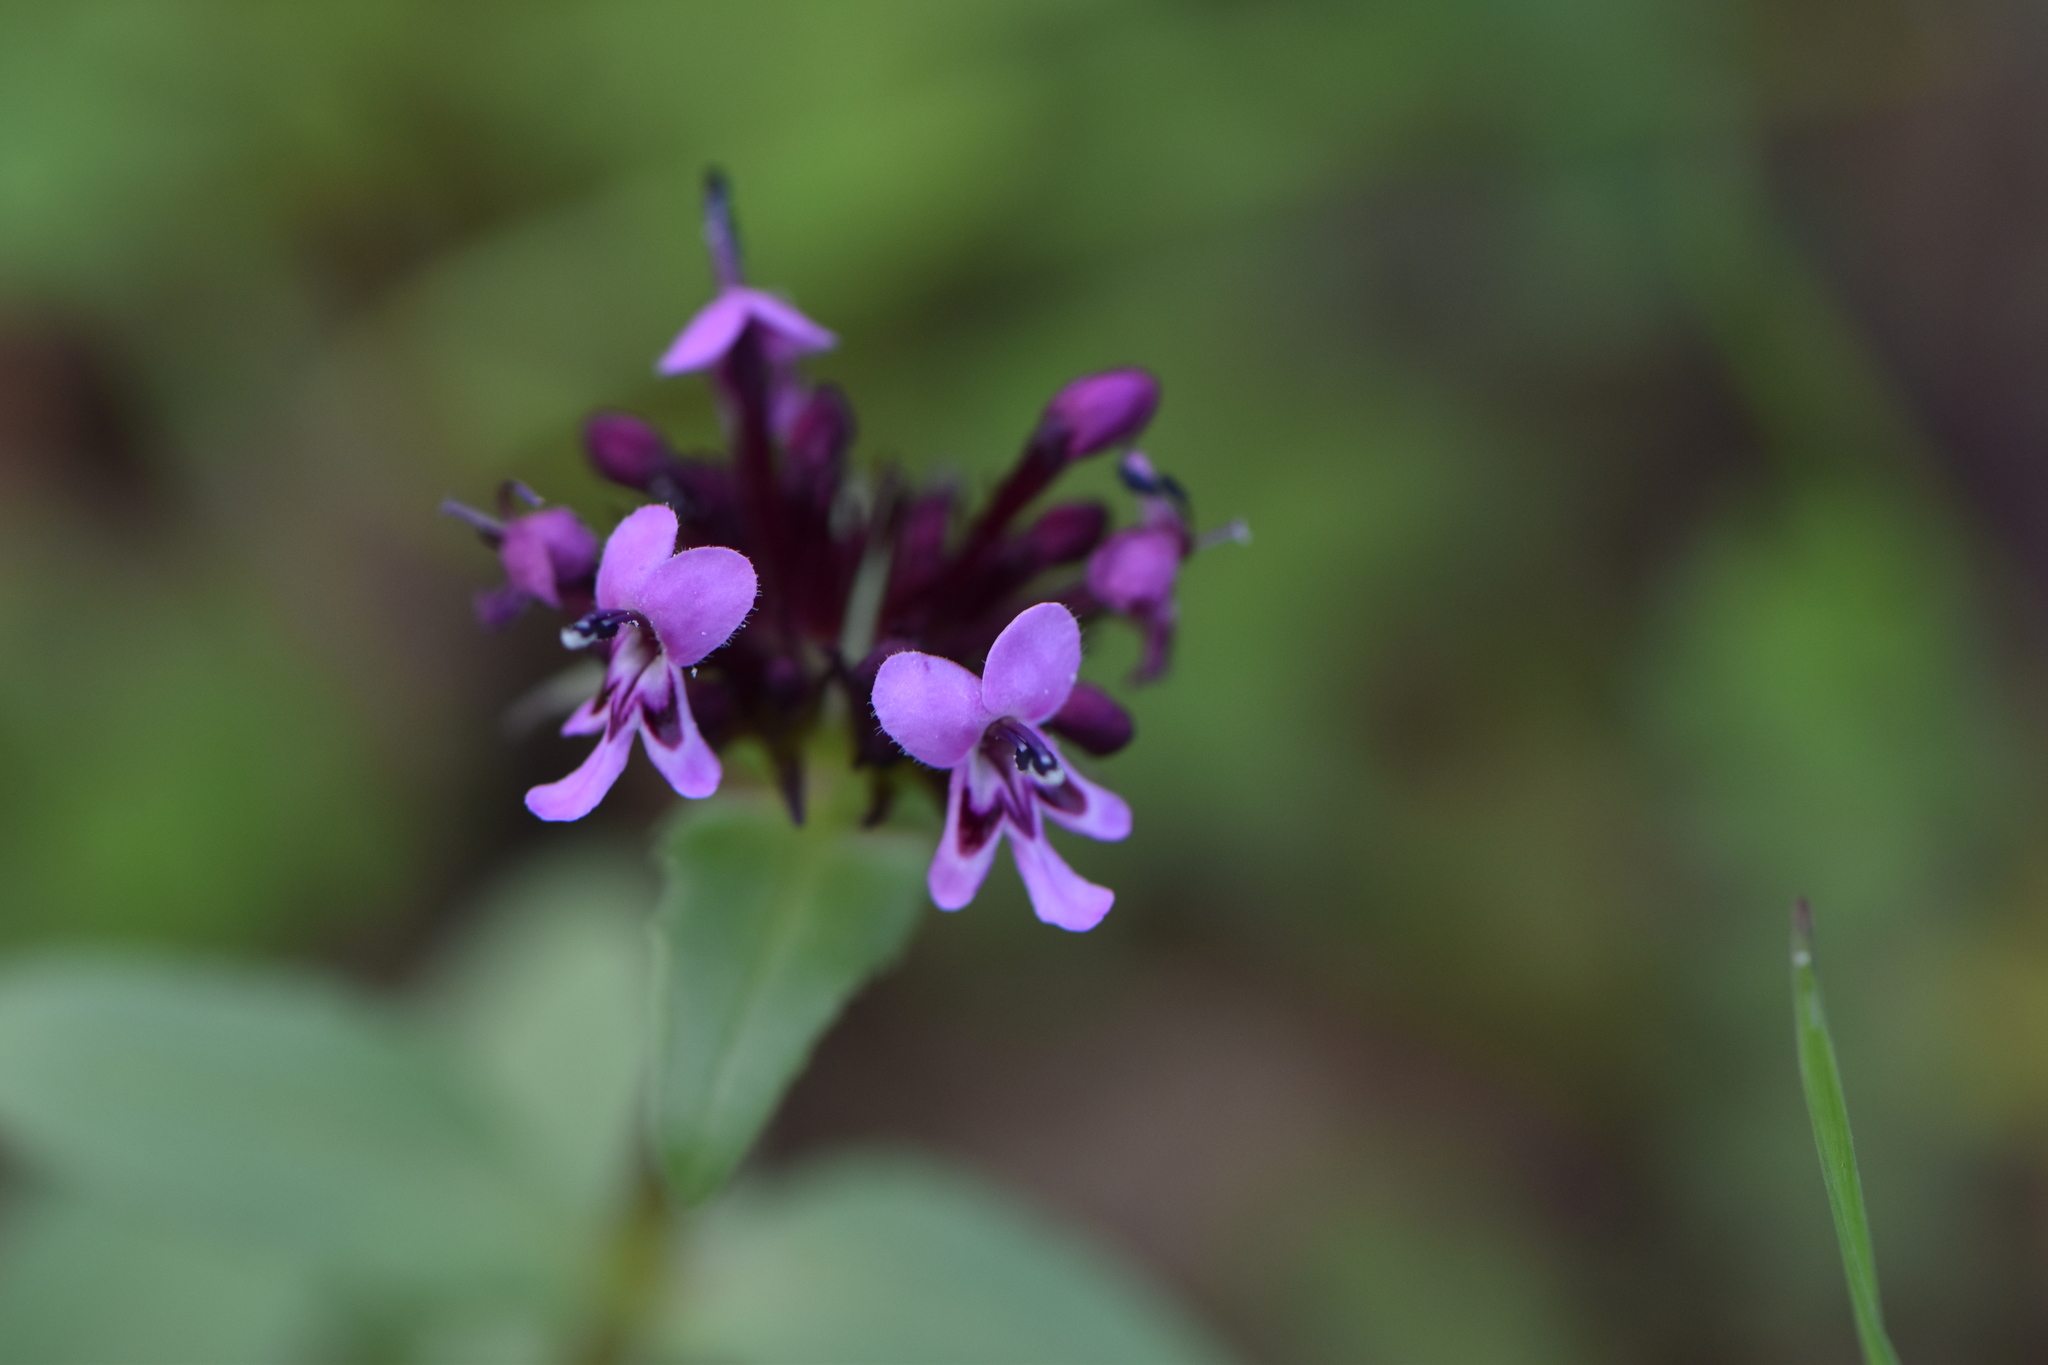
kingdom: Plantae
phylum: Tracheophyta
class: Magnoliopsida
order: Dipsacales
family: Caprifoliaceae
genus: Fedia
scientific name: Fedia cornucopiae
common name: Horn-of-plenty
